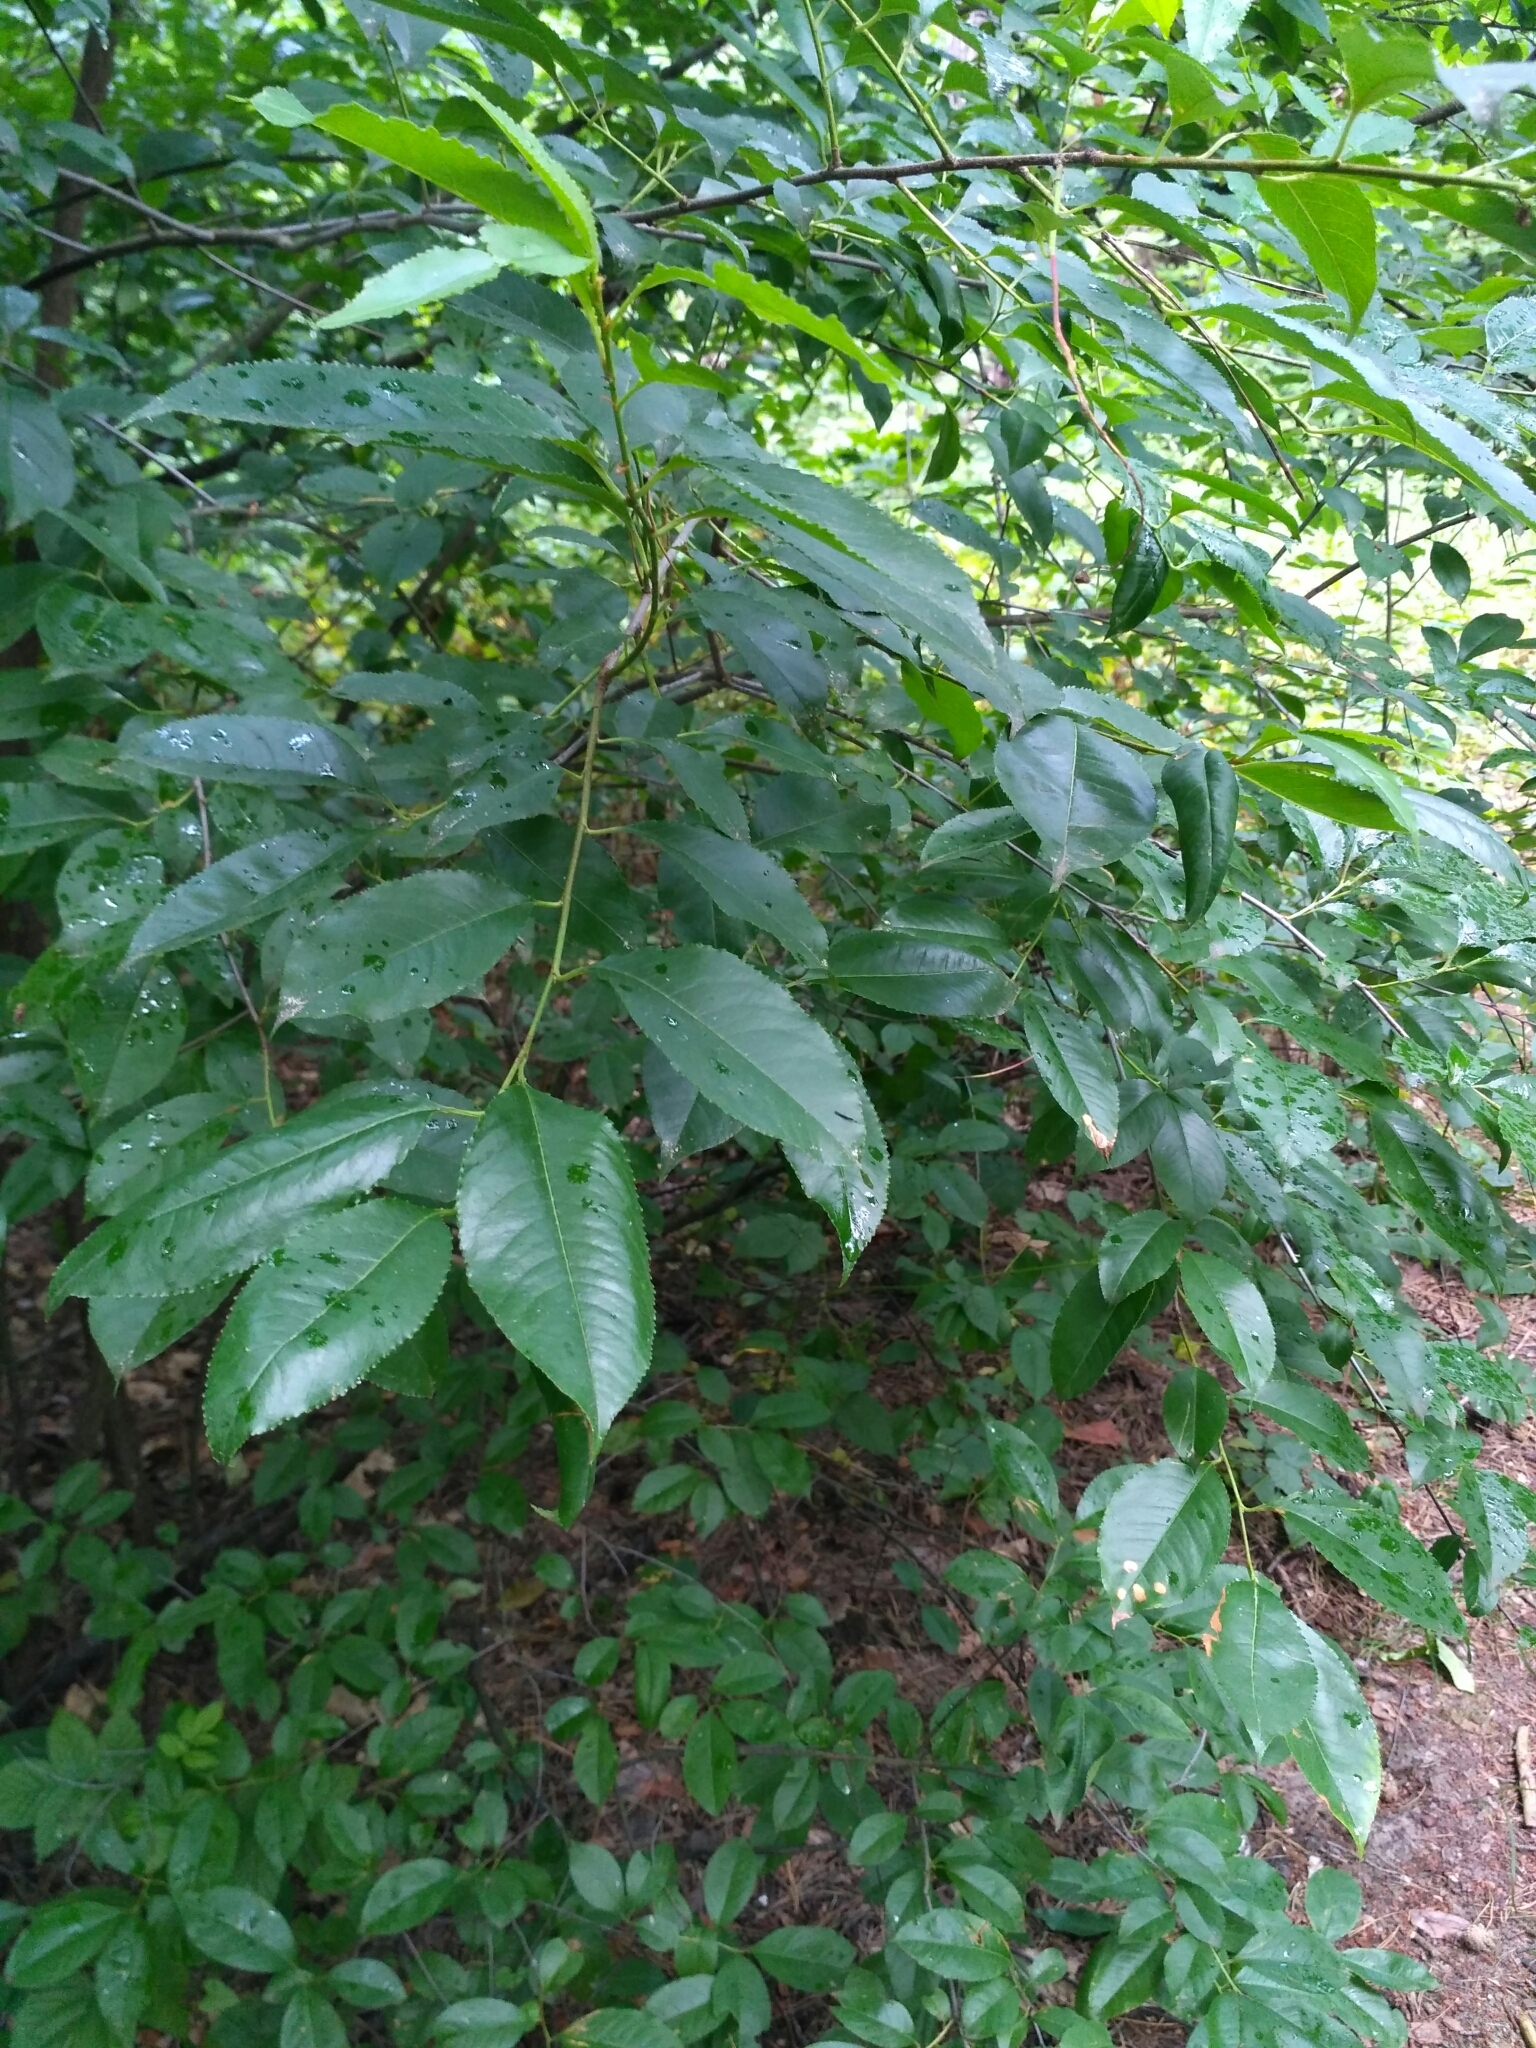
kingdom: Plantae
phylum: Tracheophyta
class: Magnoliopsida
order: Rosales
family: Rosaceae
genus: Prunus
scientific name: Prunus serotina
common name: Black cherry
